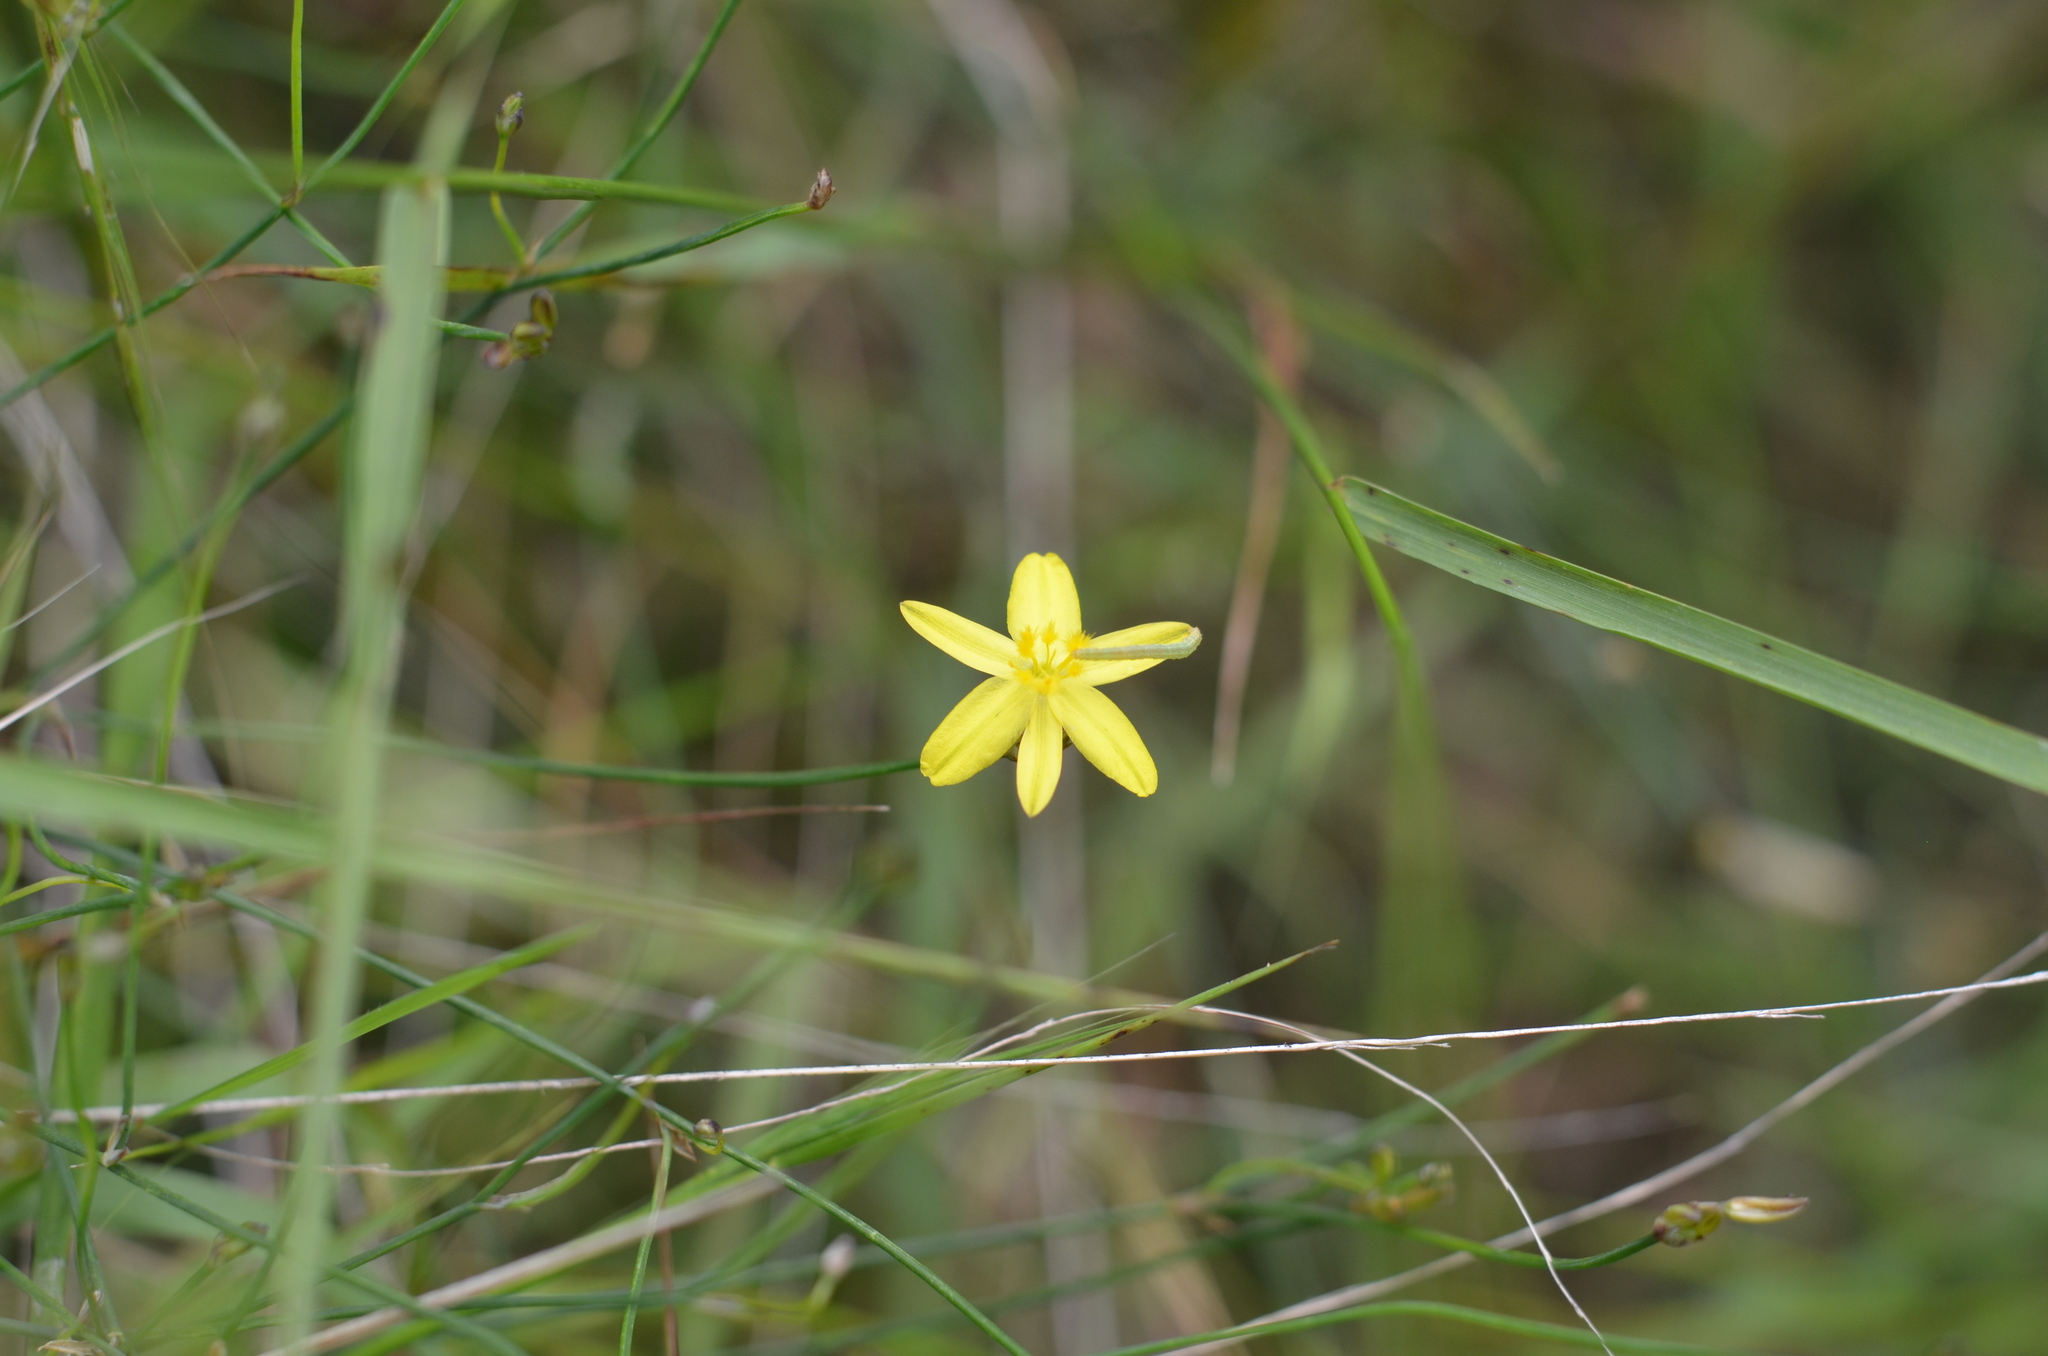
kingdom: Plantae
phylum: Tracheophyta
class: Liliopsida
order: Asparagales
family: Asphodelaceae
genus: Tricoryne
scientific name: Tricoryne elatior
